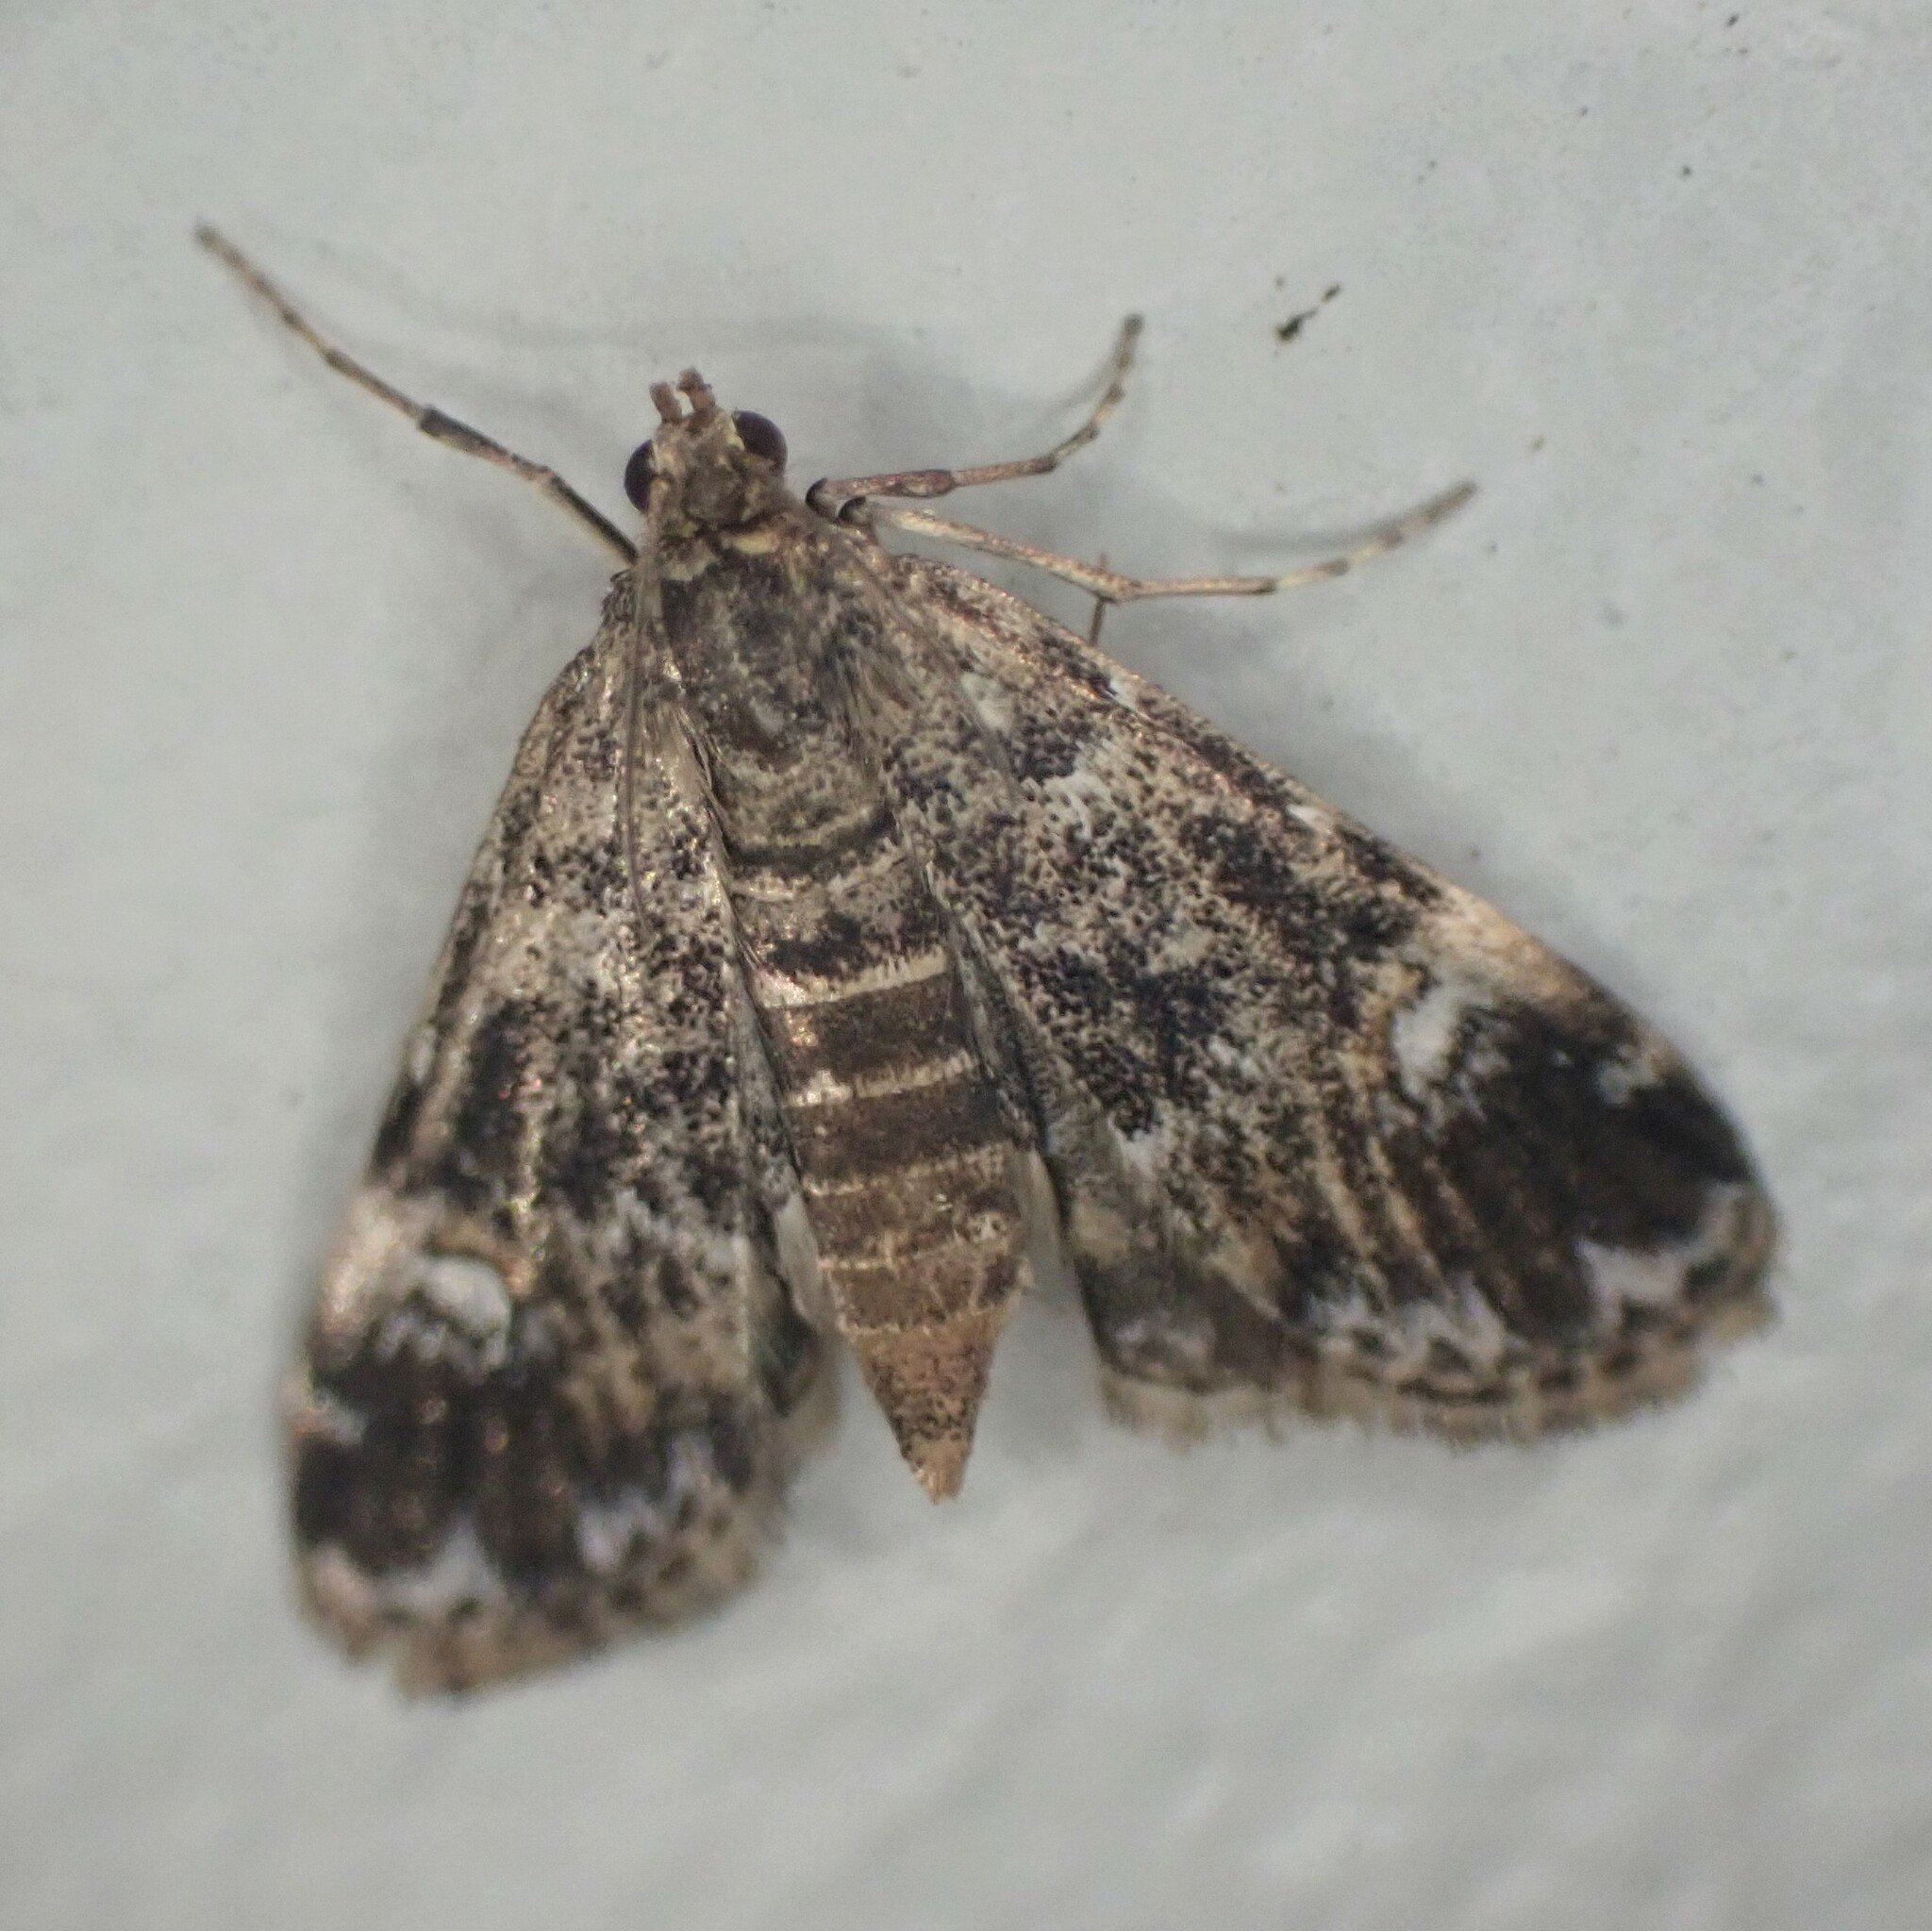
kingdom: Animalia
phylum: Arthropoda
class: Insecta
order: Lepidoptera
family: Crambidae
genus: Elophila
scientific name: Elophila obliteralis
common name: Waterlily leafcutter moth
